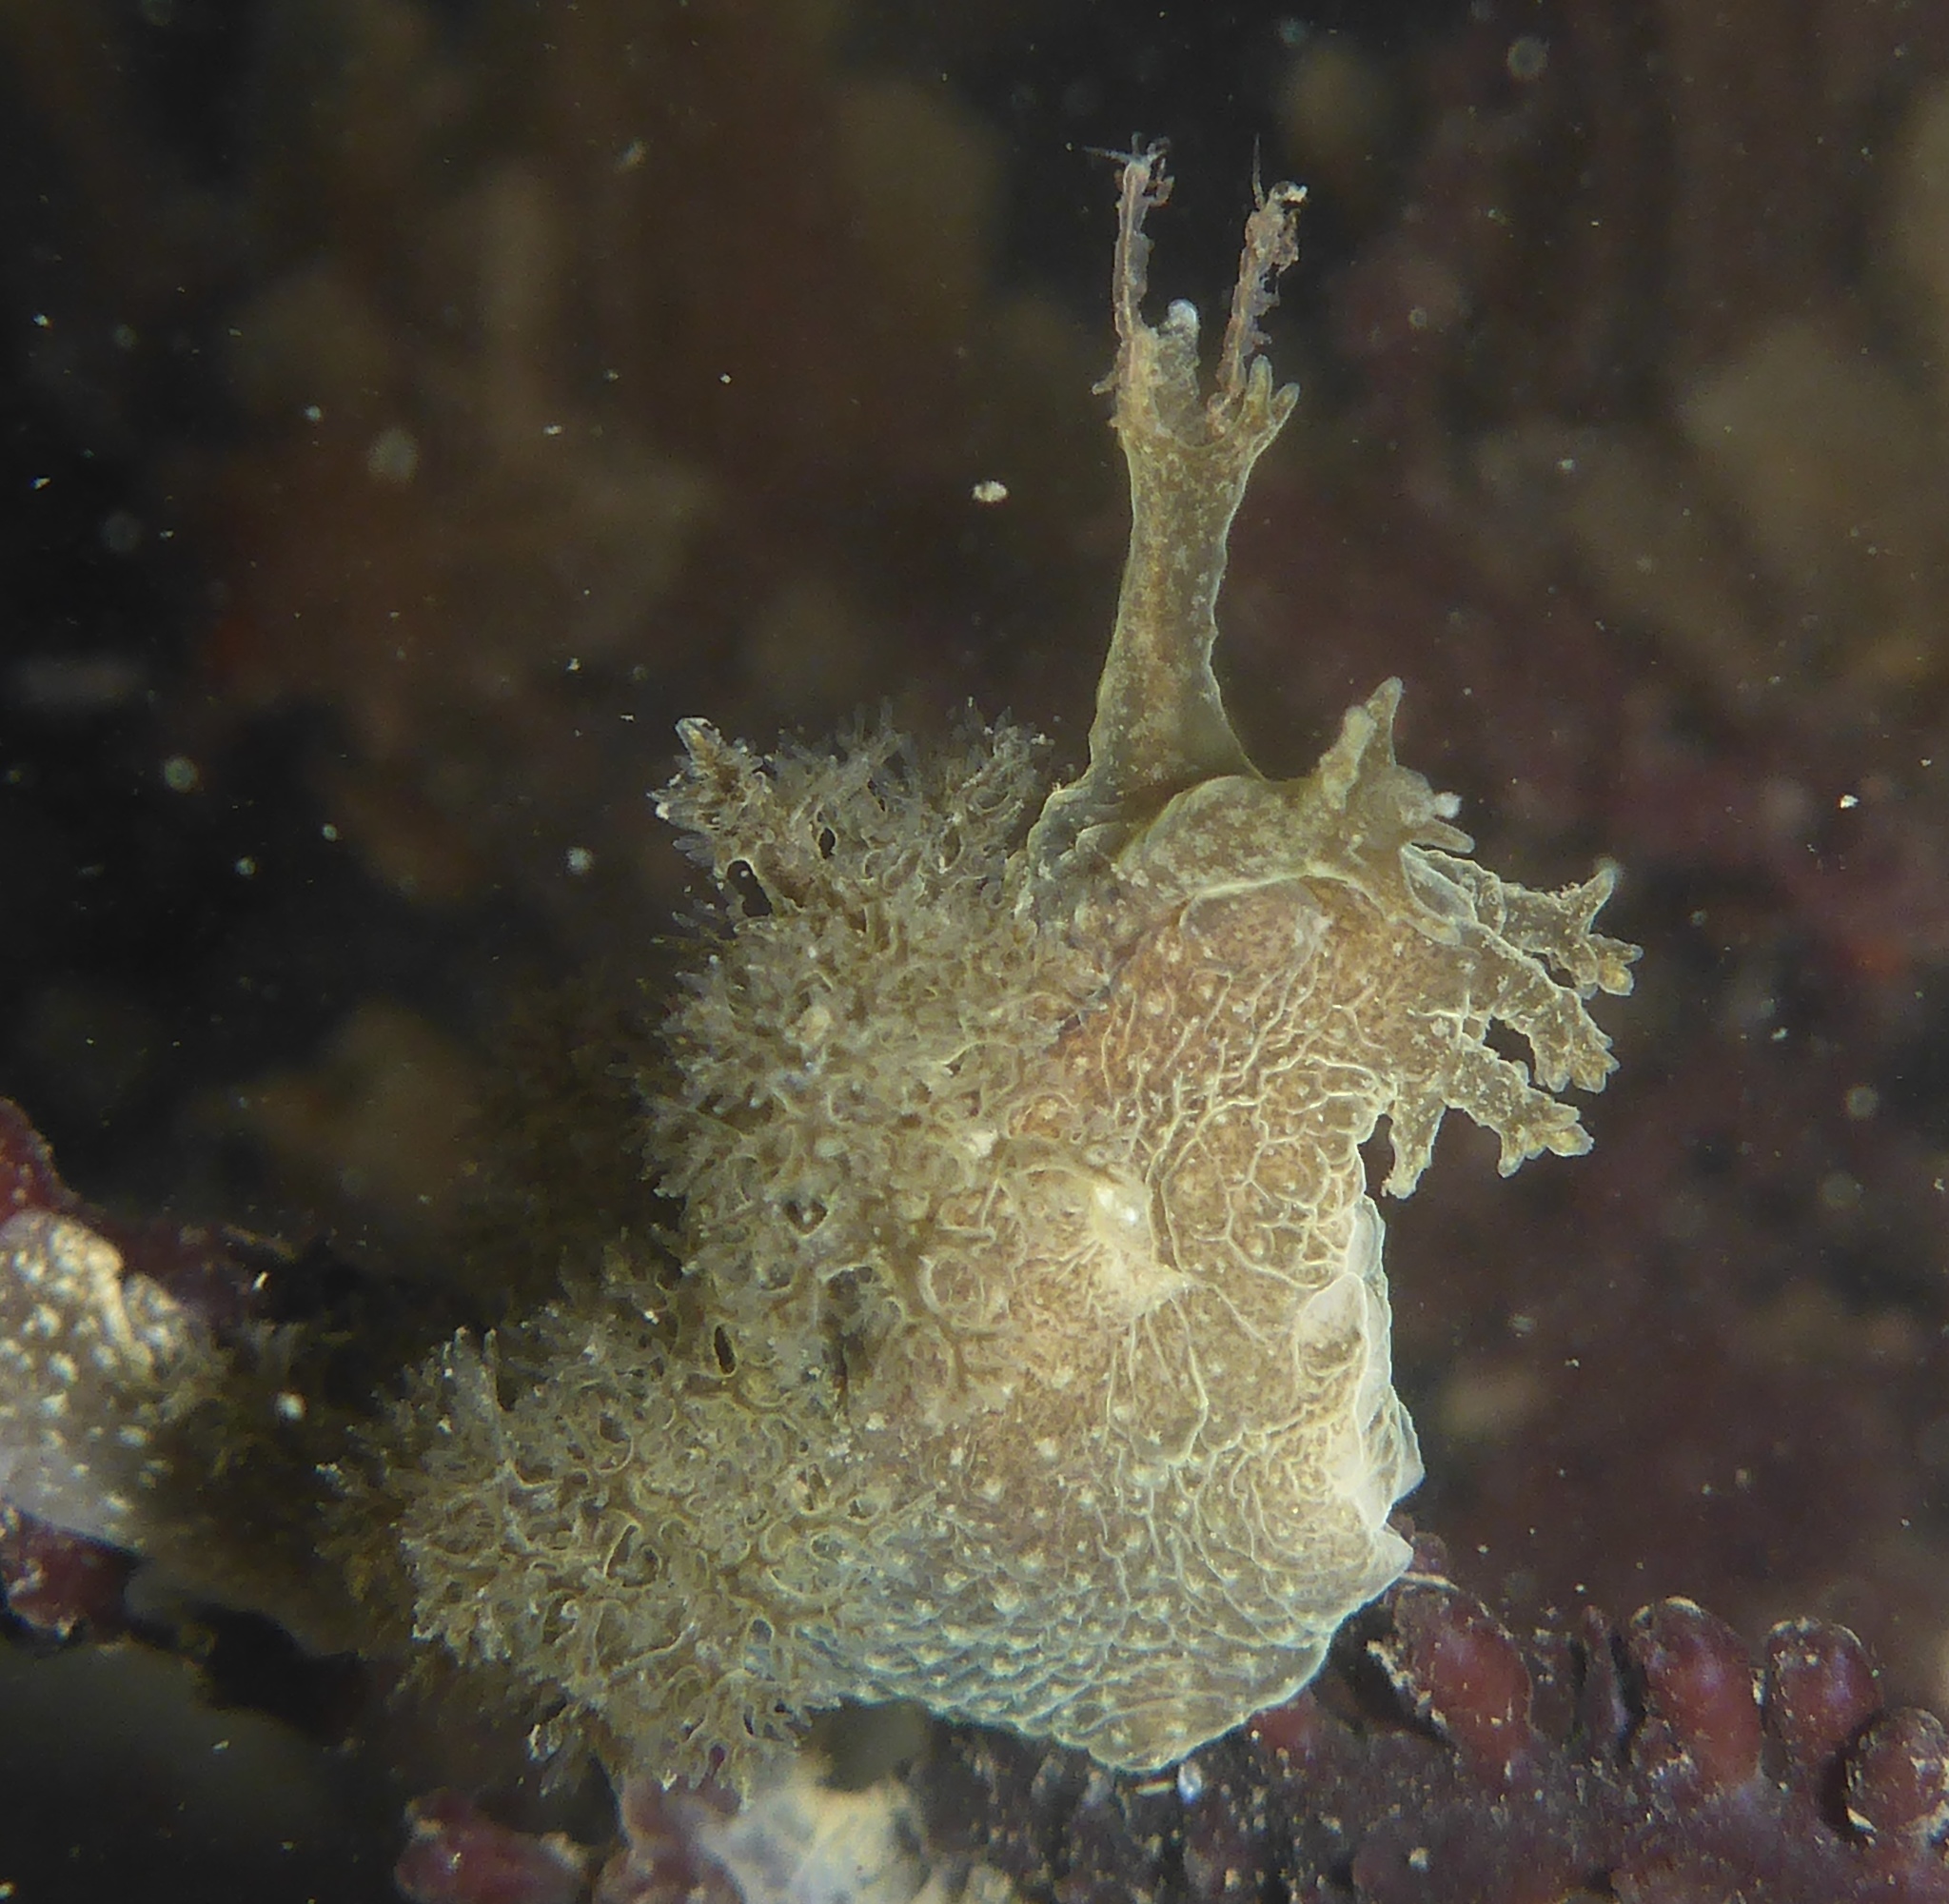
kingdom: Animalia
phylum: Mollusca
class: Gastropoda
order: Nudibranchia
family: Dendronotidae
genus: Dendronotus
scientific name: Dendronotus subramosus
